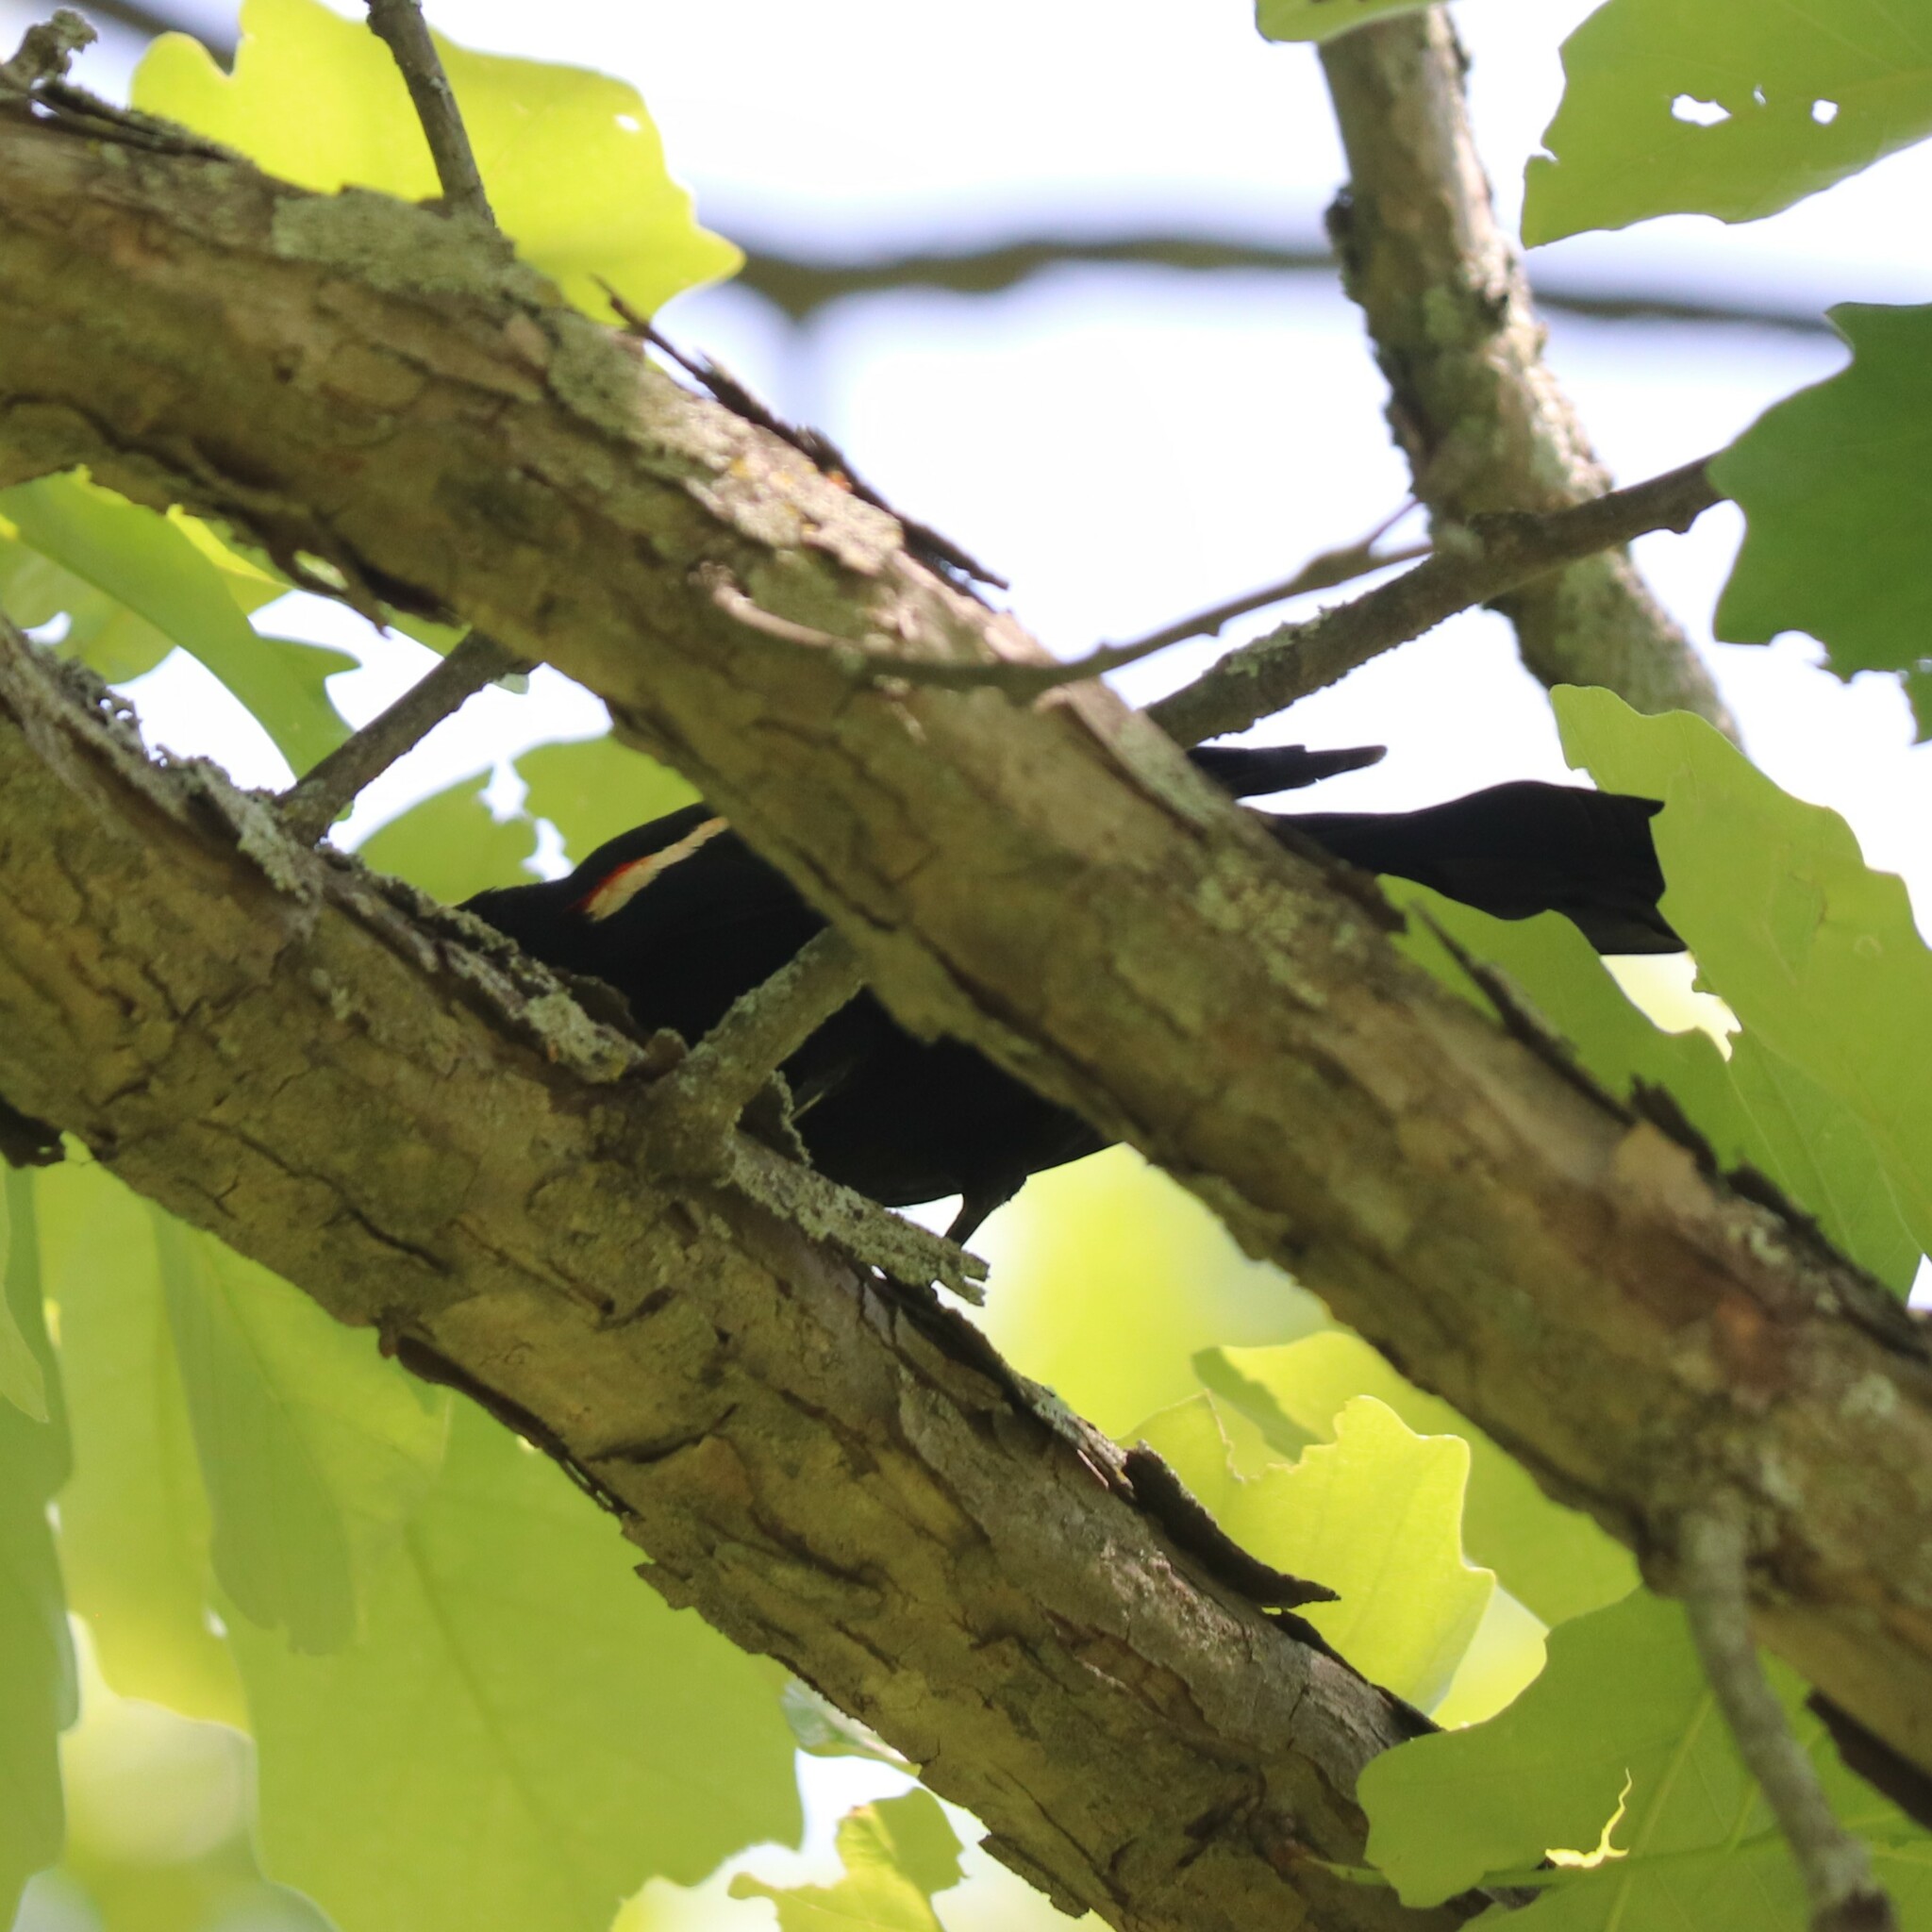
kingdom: Animalia
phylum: Chordata
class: Aves
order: Passeriformes
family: Icteridae
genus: Agelaius
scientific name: Agelaius phoeniceus
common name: Red-winged blackbird
